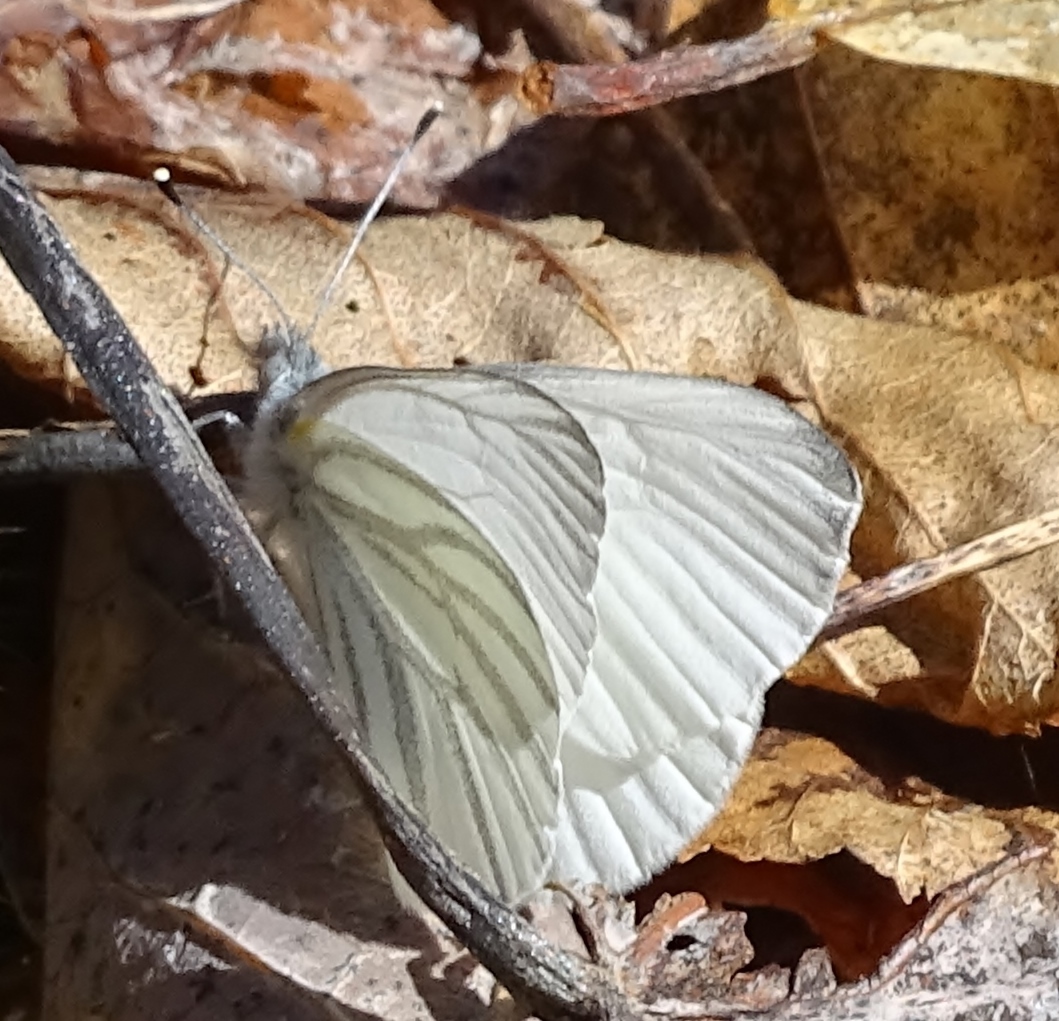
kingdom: Animalia
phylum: Arthropoda
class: Insecta
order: Lepidoptera
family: Pieridae
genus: Pieris
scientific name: Pieris oleracea
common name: Mustard white
